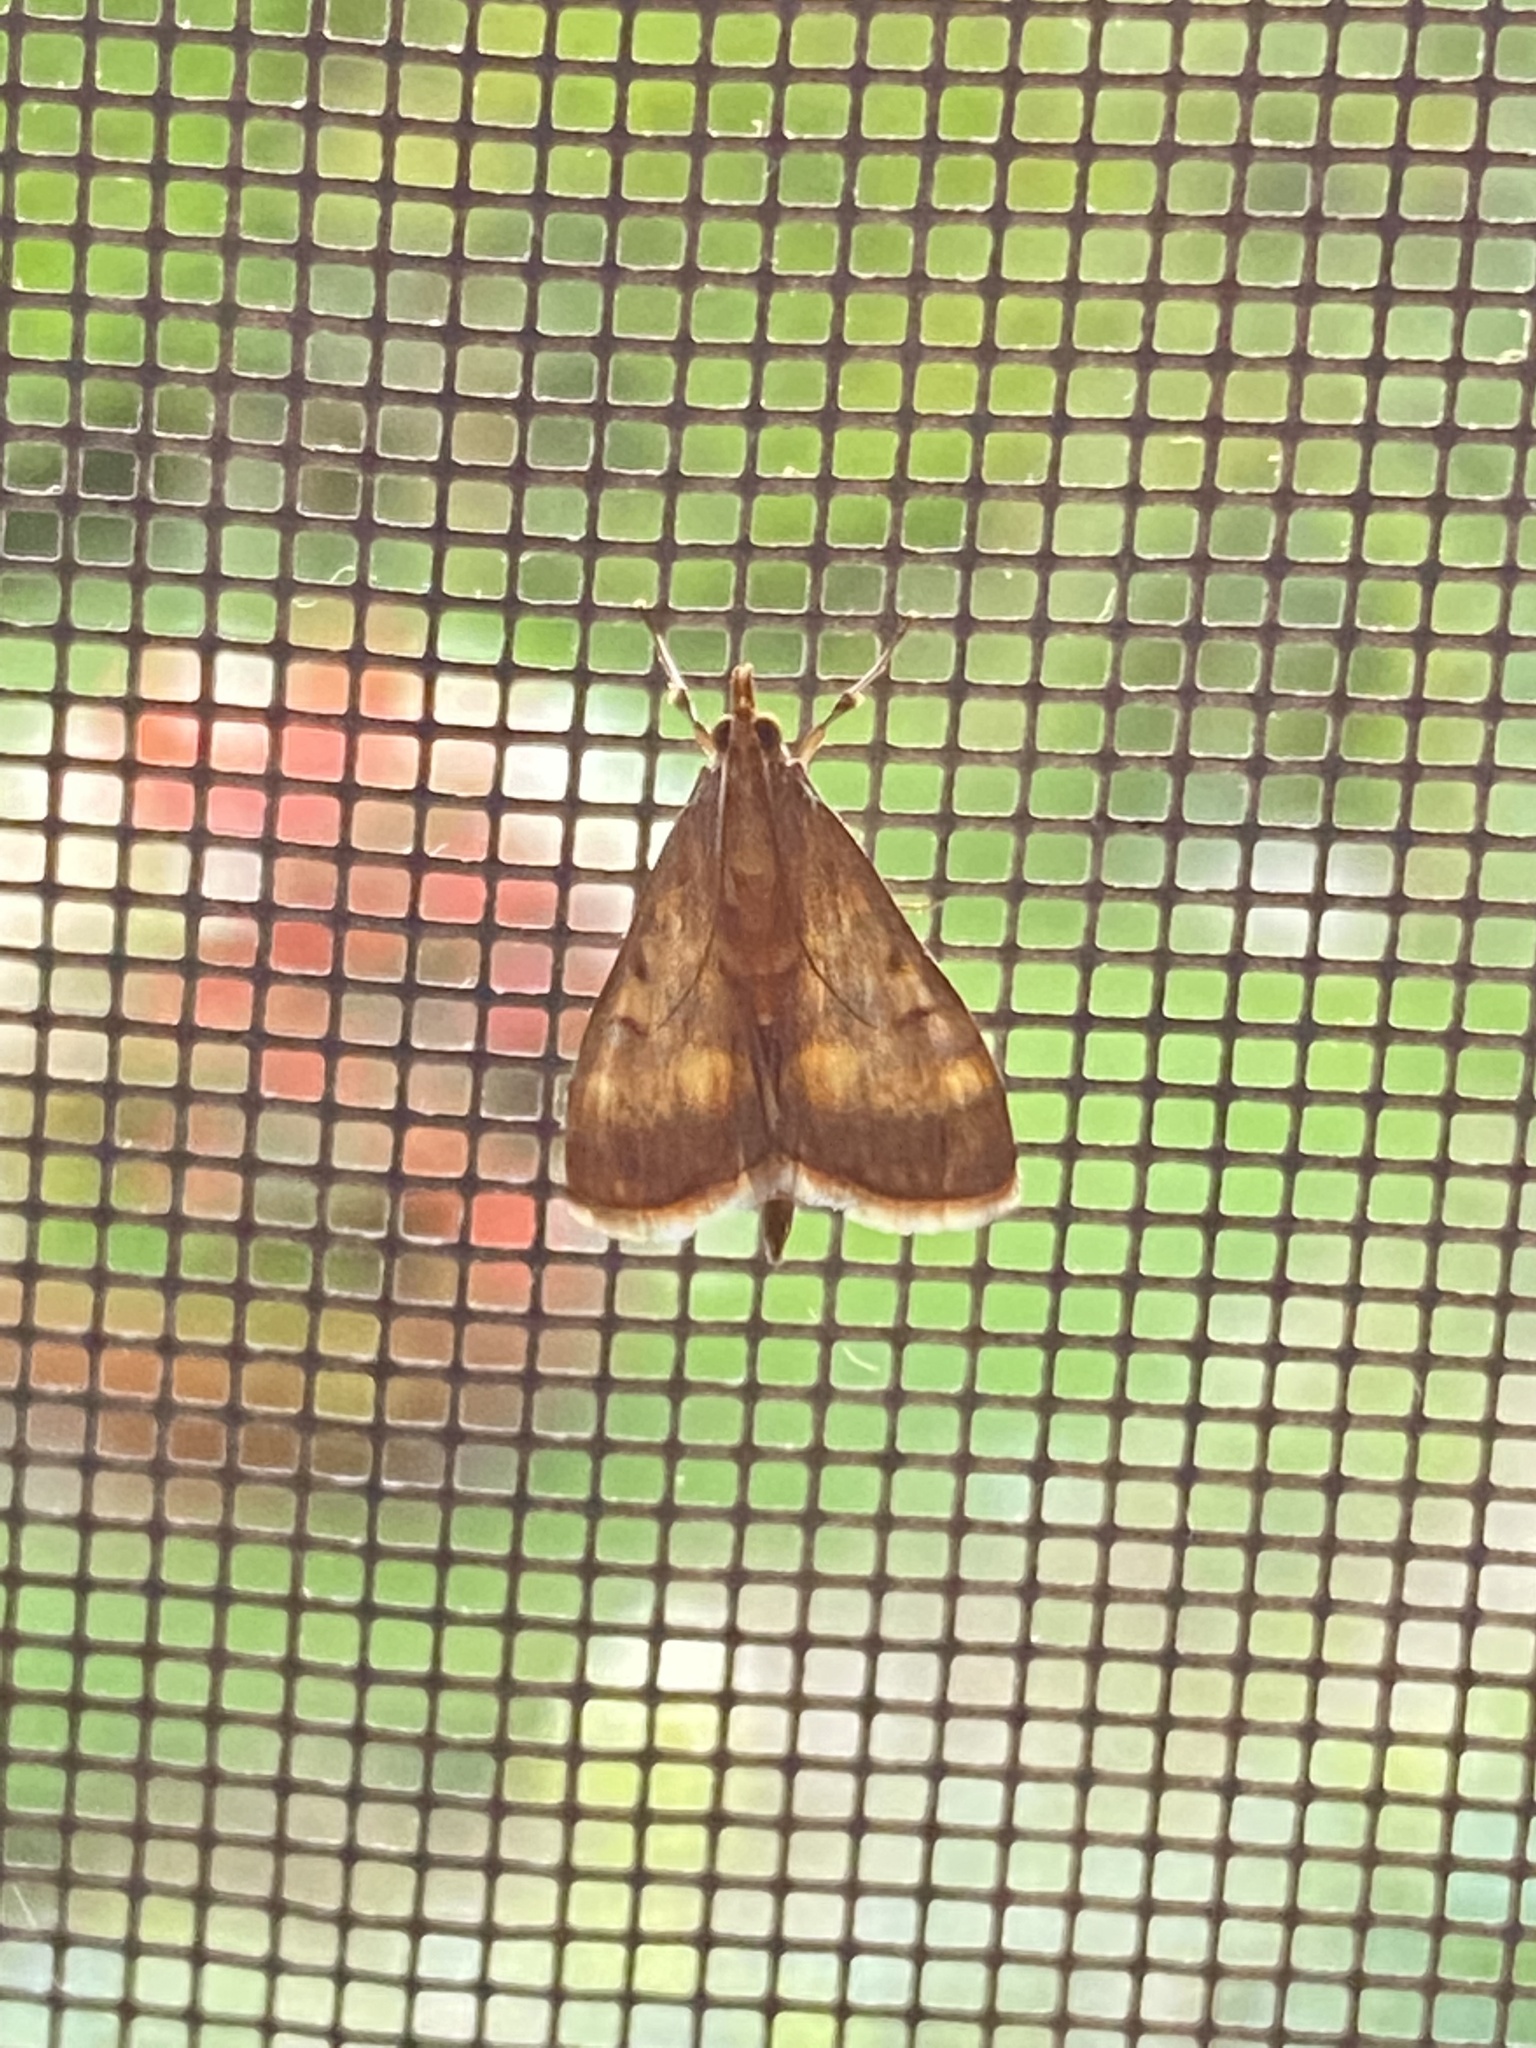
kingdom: Animalia
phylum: Arthropoda
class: Insecta
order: Lepidoptera
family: Crambidae
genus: Ostrinia
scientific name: Ostrinia nubilalis
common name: European corn borer
